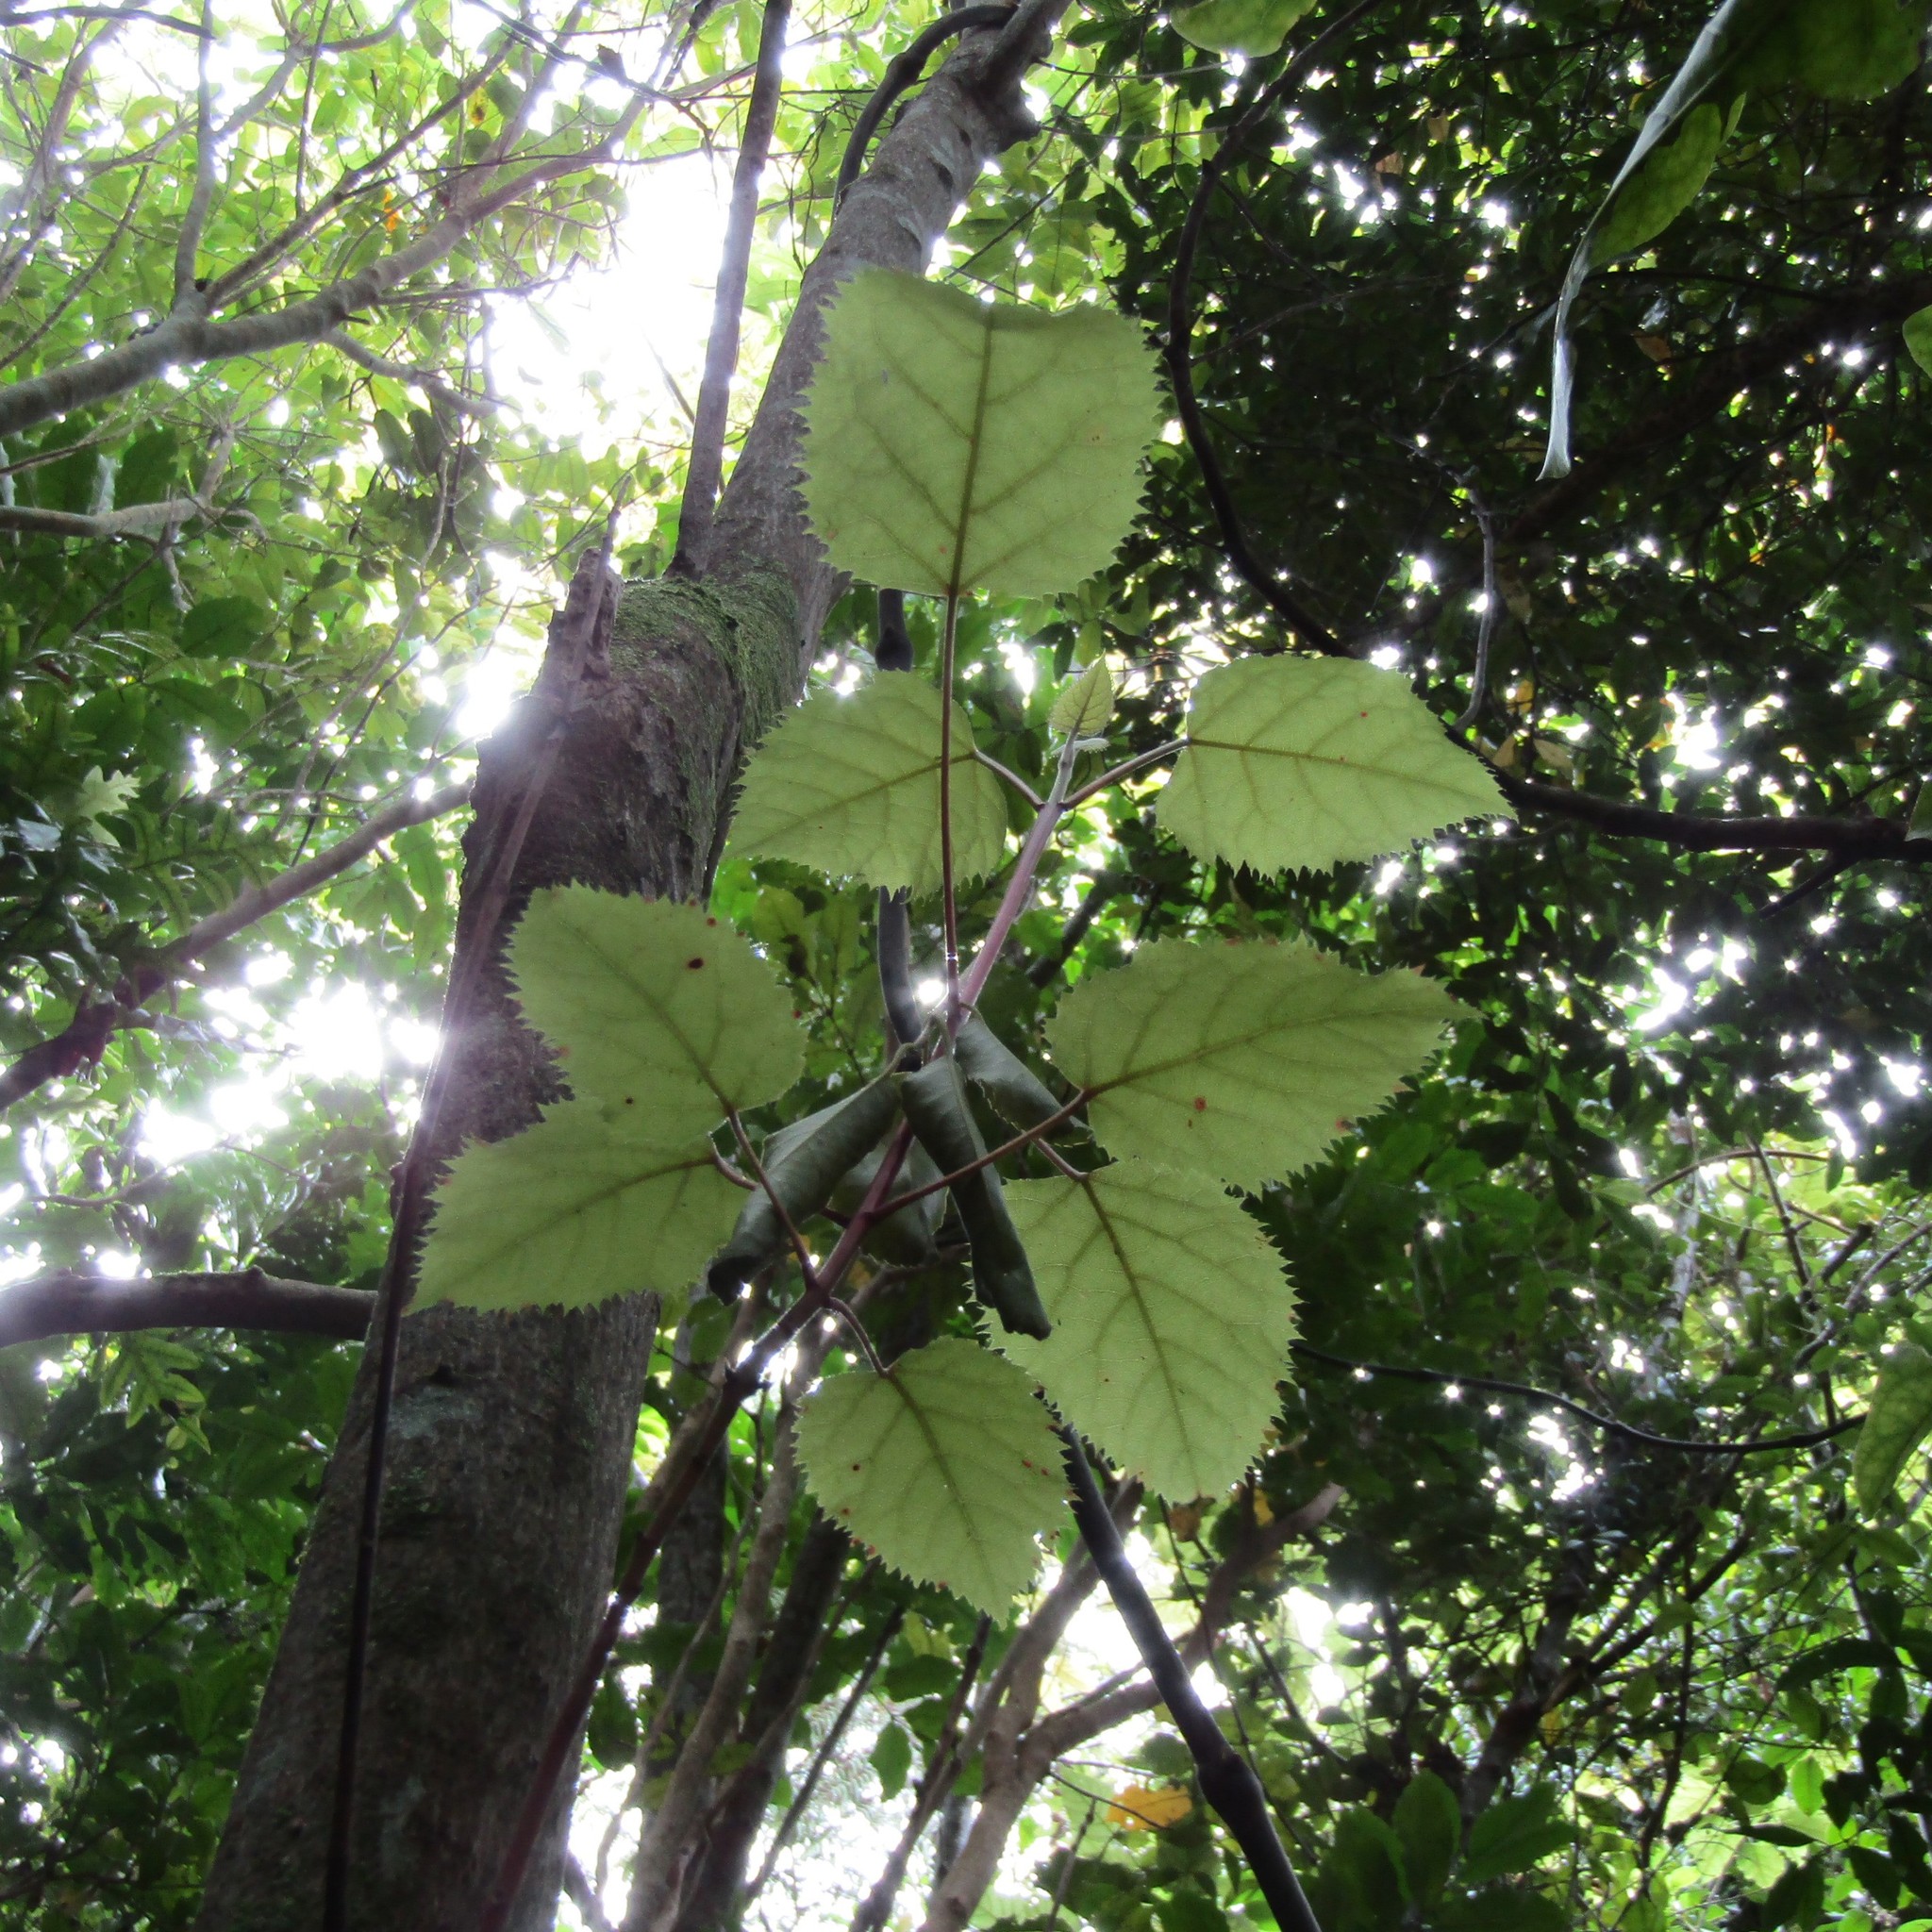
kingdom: Animalia
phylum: Arthropoda
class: Insecta
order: Lepidoptera
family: Hepialidae
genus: Aenetus
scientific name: Aenetus virescens
